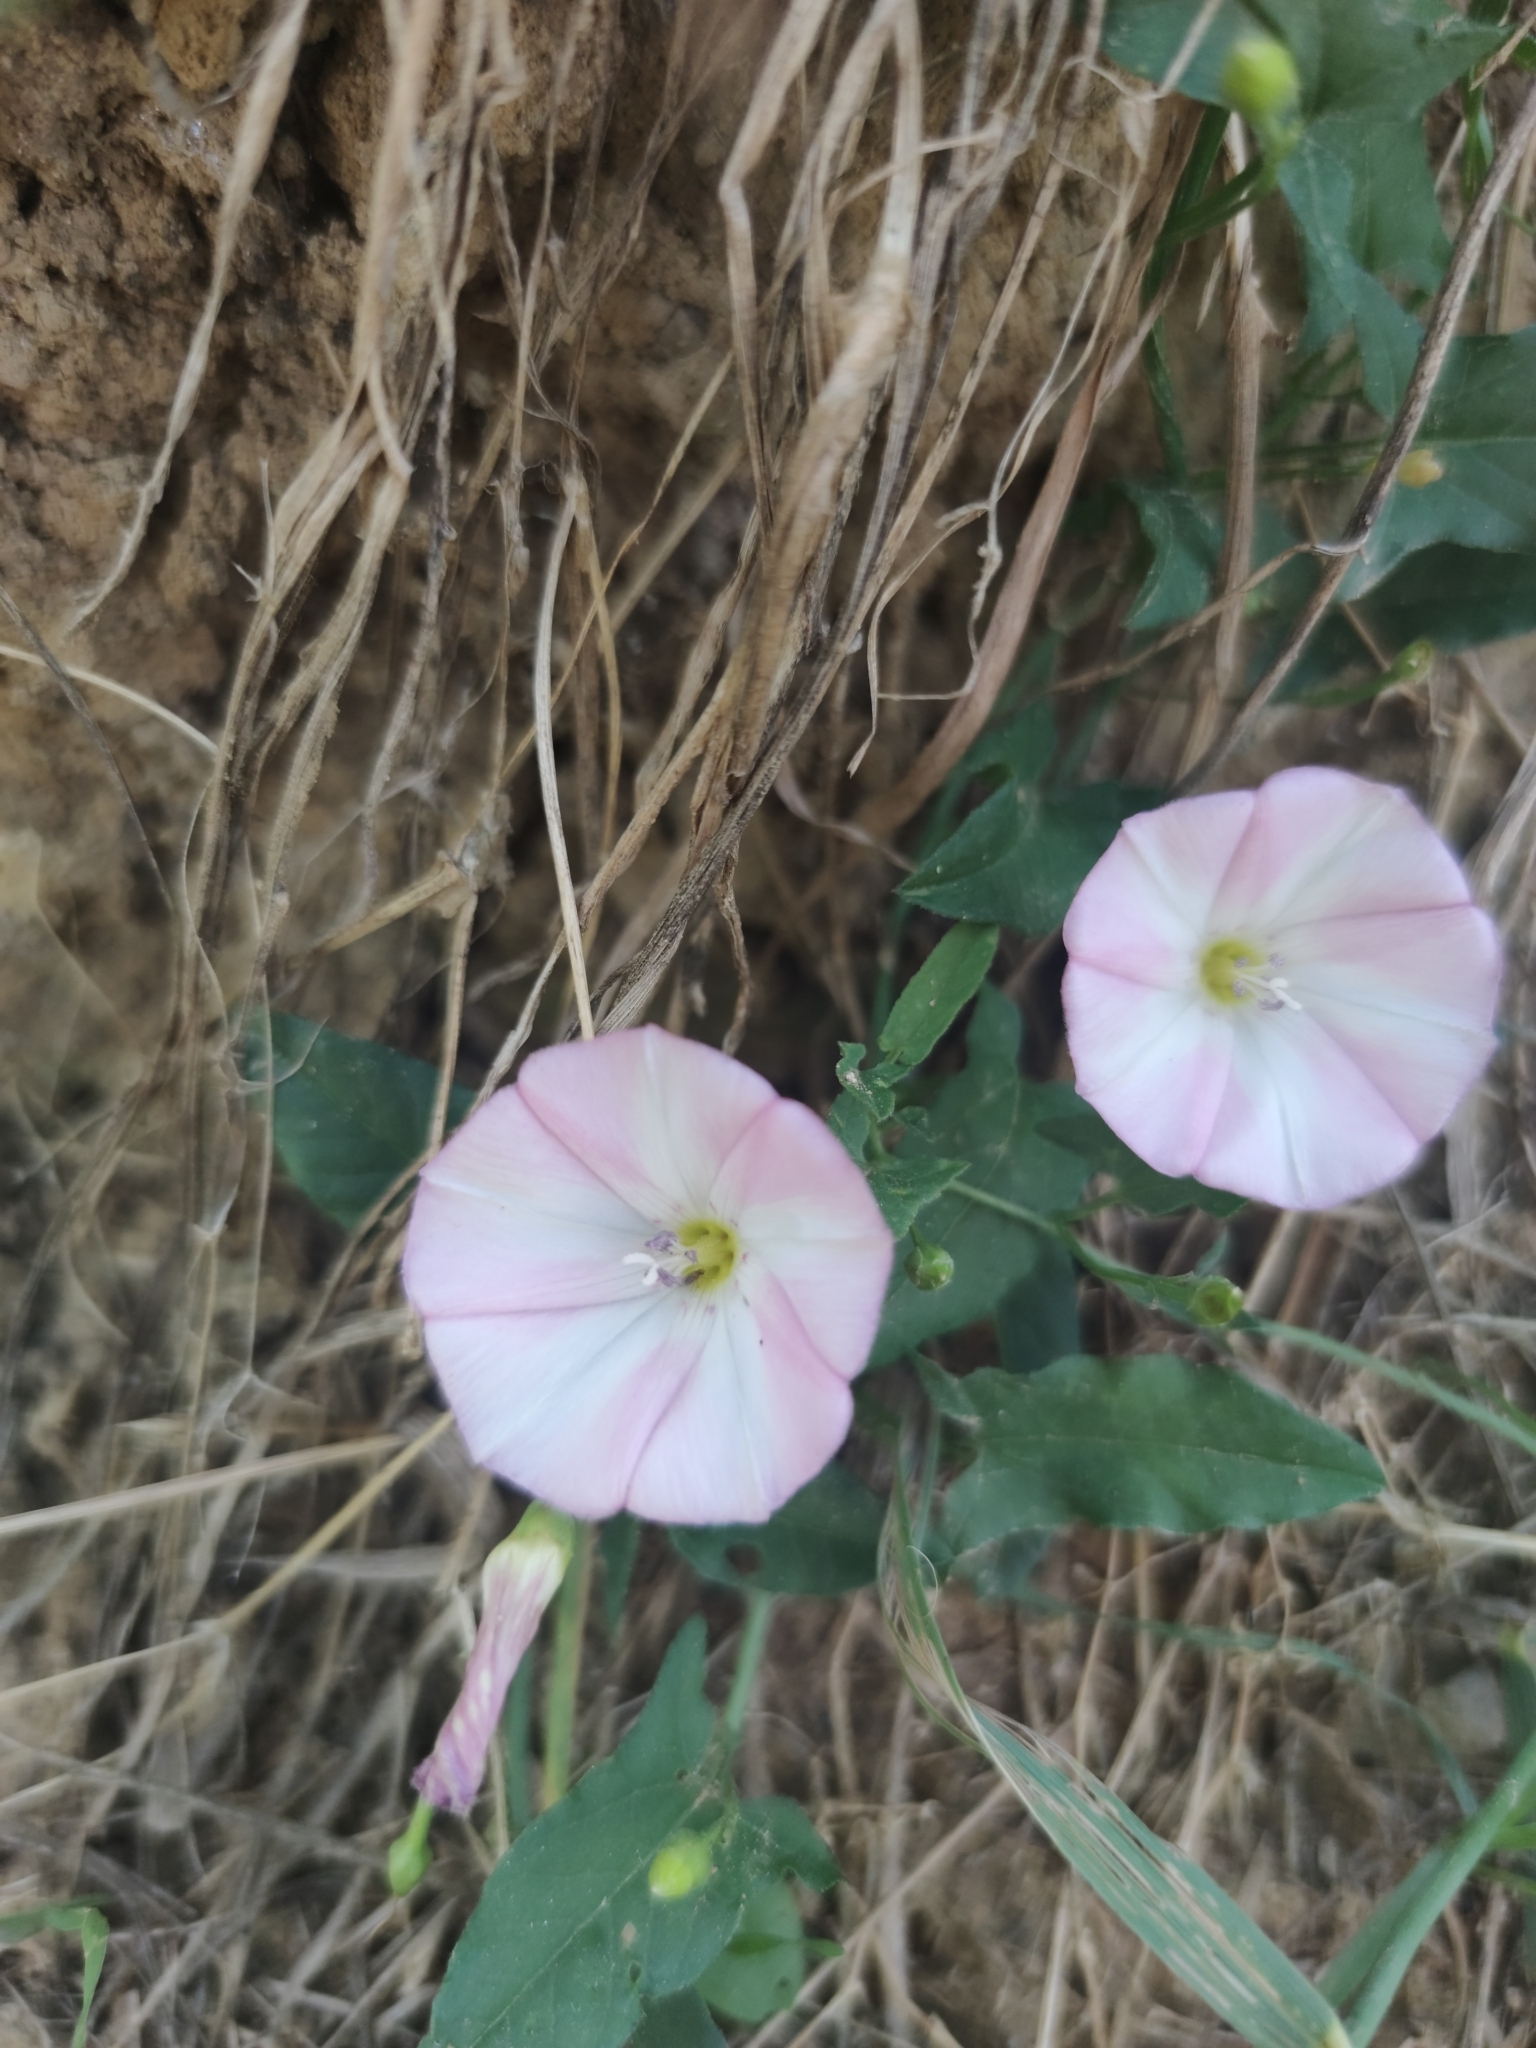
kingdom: Plantae
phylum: Tracheophyta
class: Magnoliopsida
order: Solanales
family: Convolvulaceae
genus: Convolvulus
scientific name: Convolvulus arvensis
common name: Field bindweed
